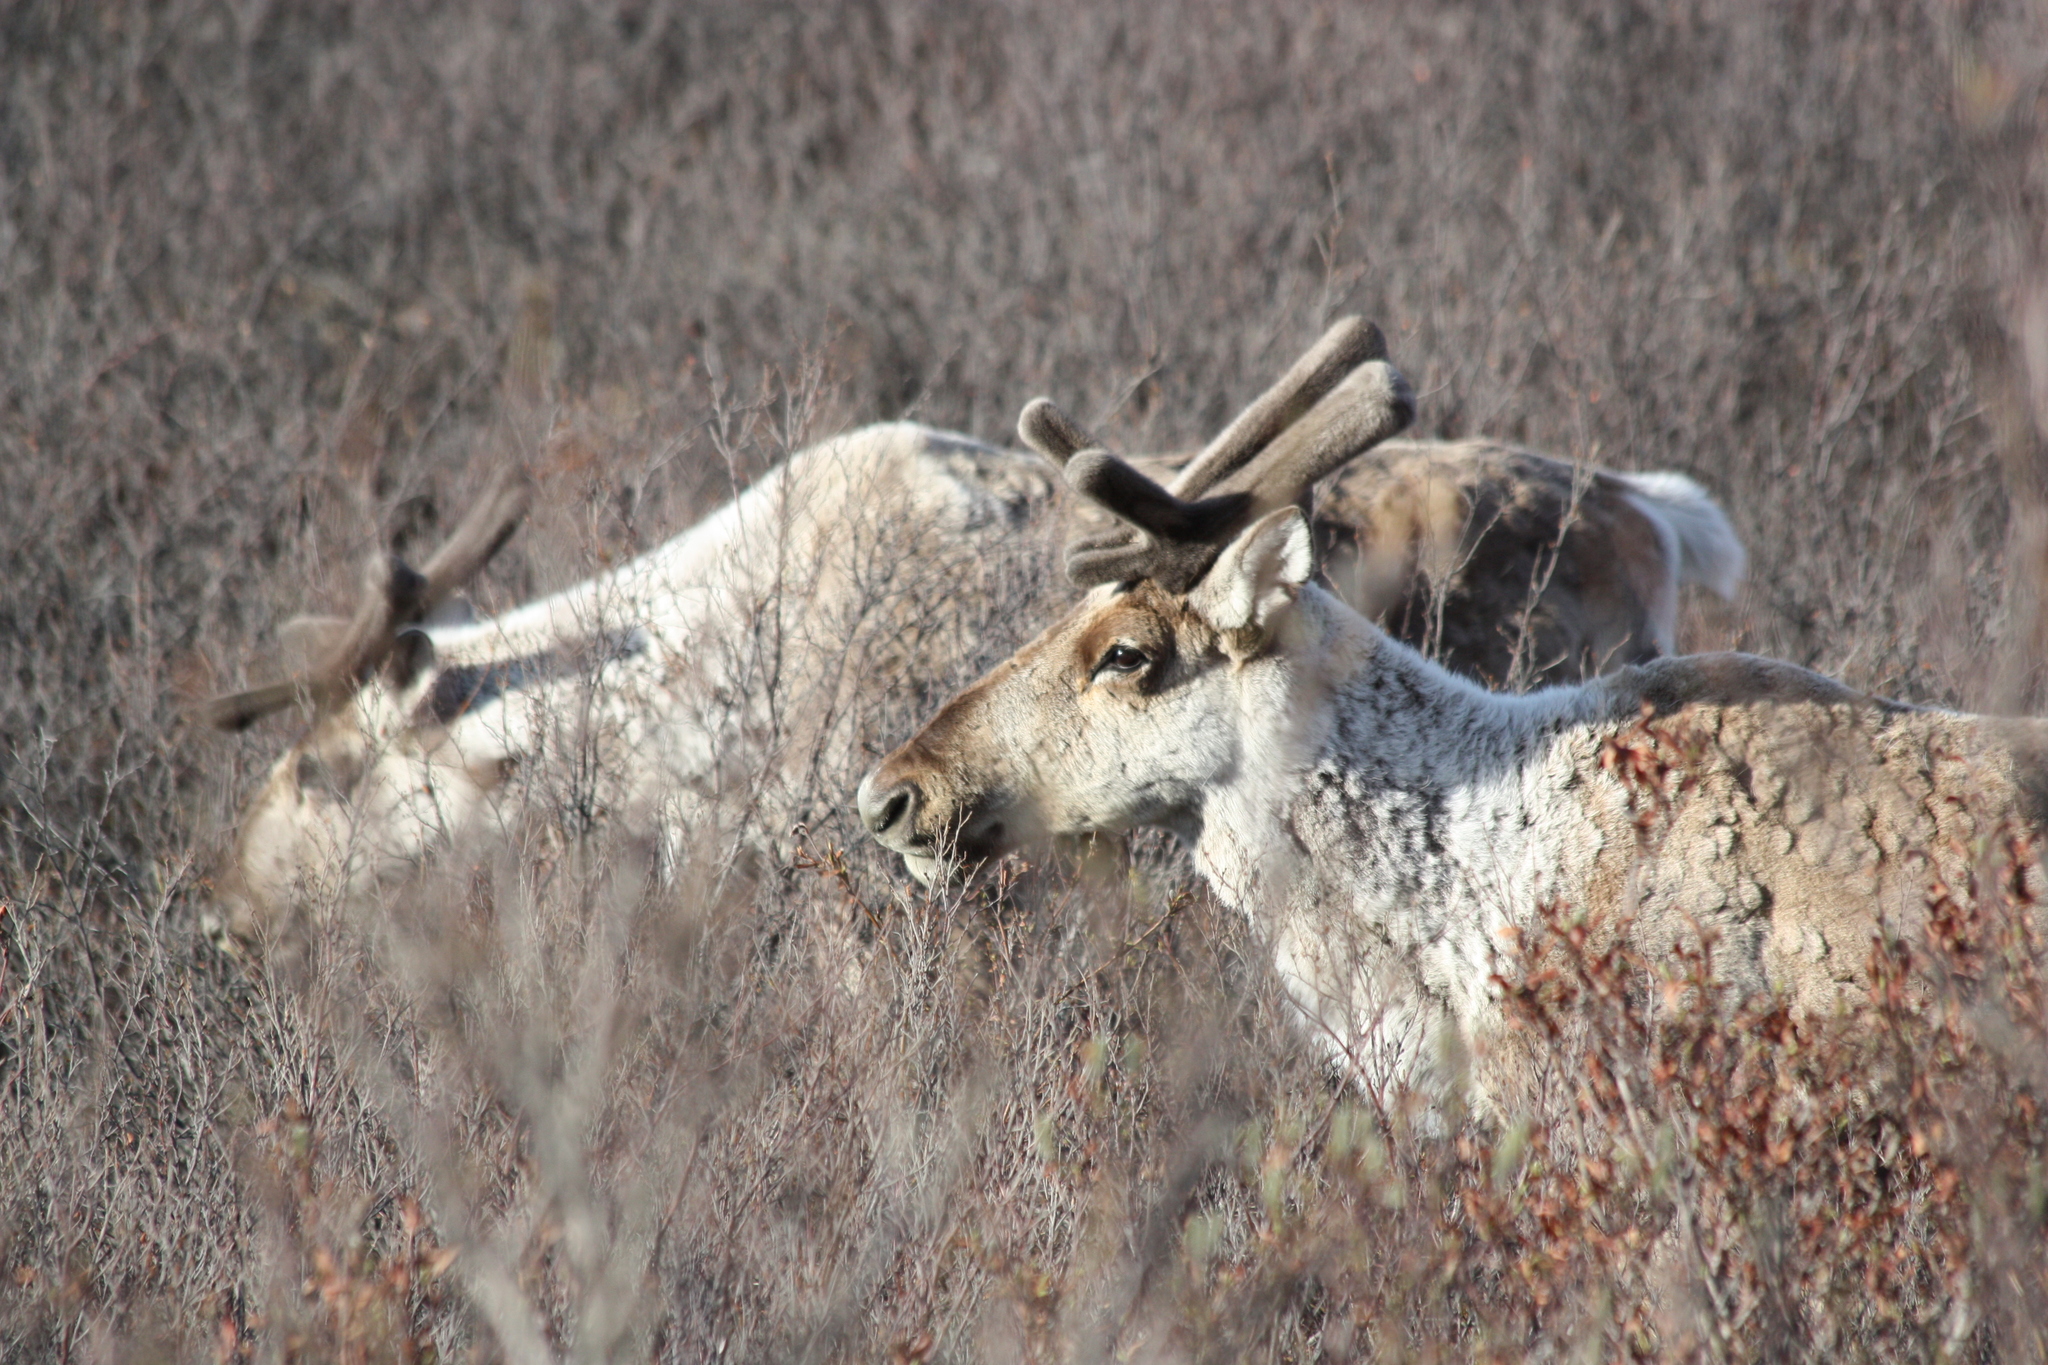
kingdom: Animalia
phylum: Chordata
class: Mammalia
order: Artiodactyla
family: Cervidae
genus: Rangifer
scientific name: Rangifer tarandus
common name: Reindeer
